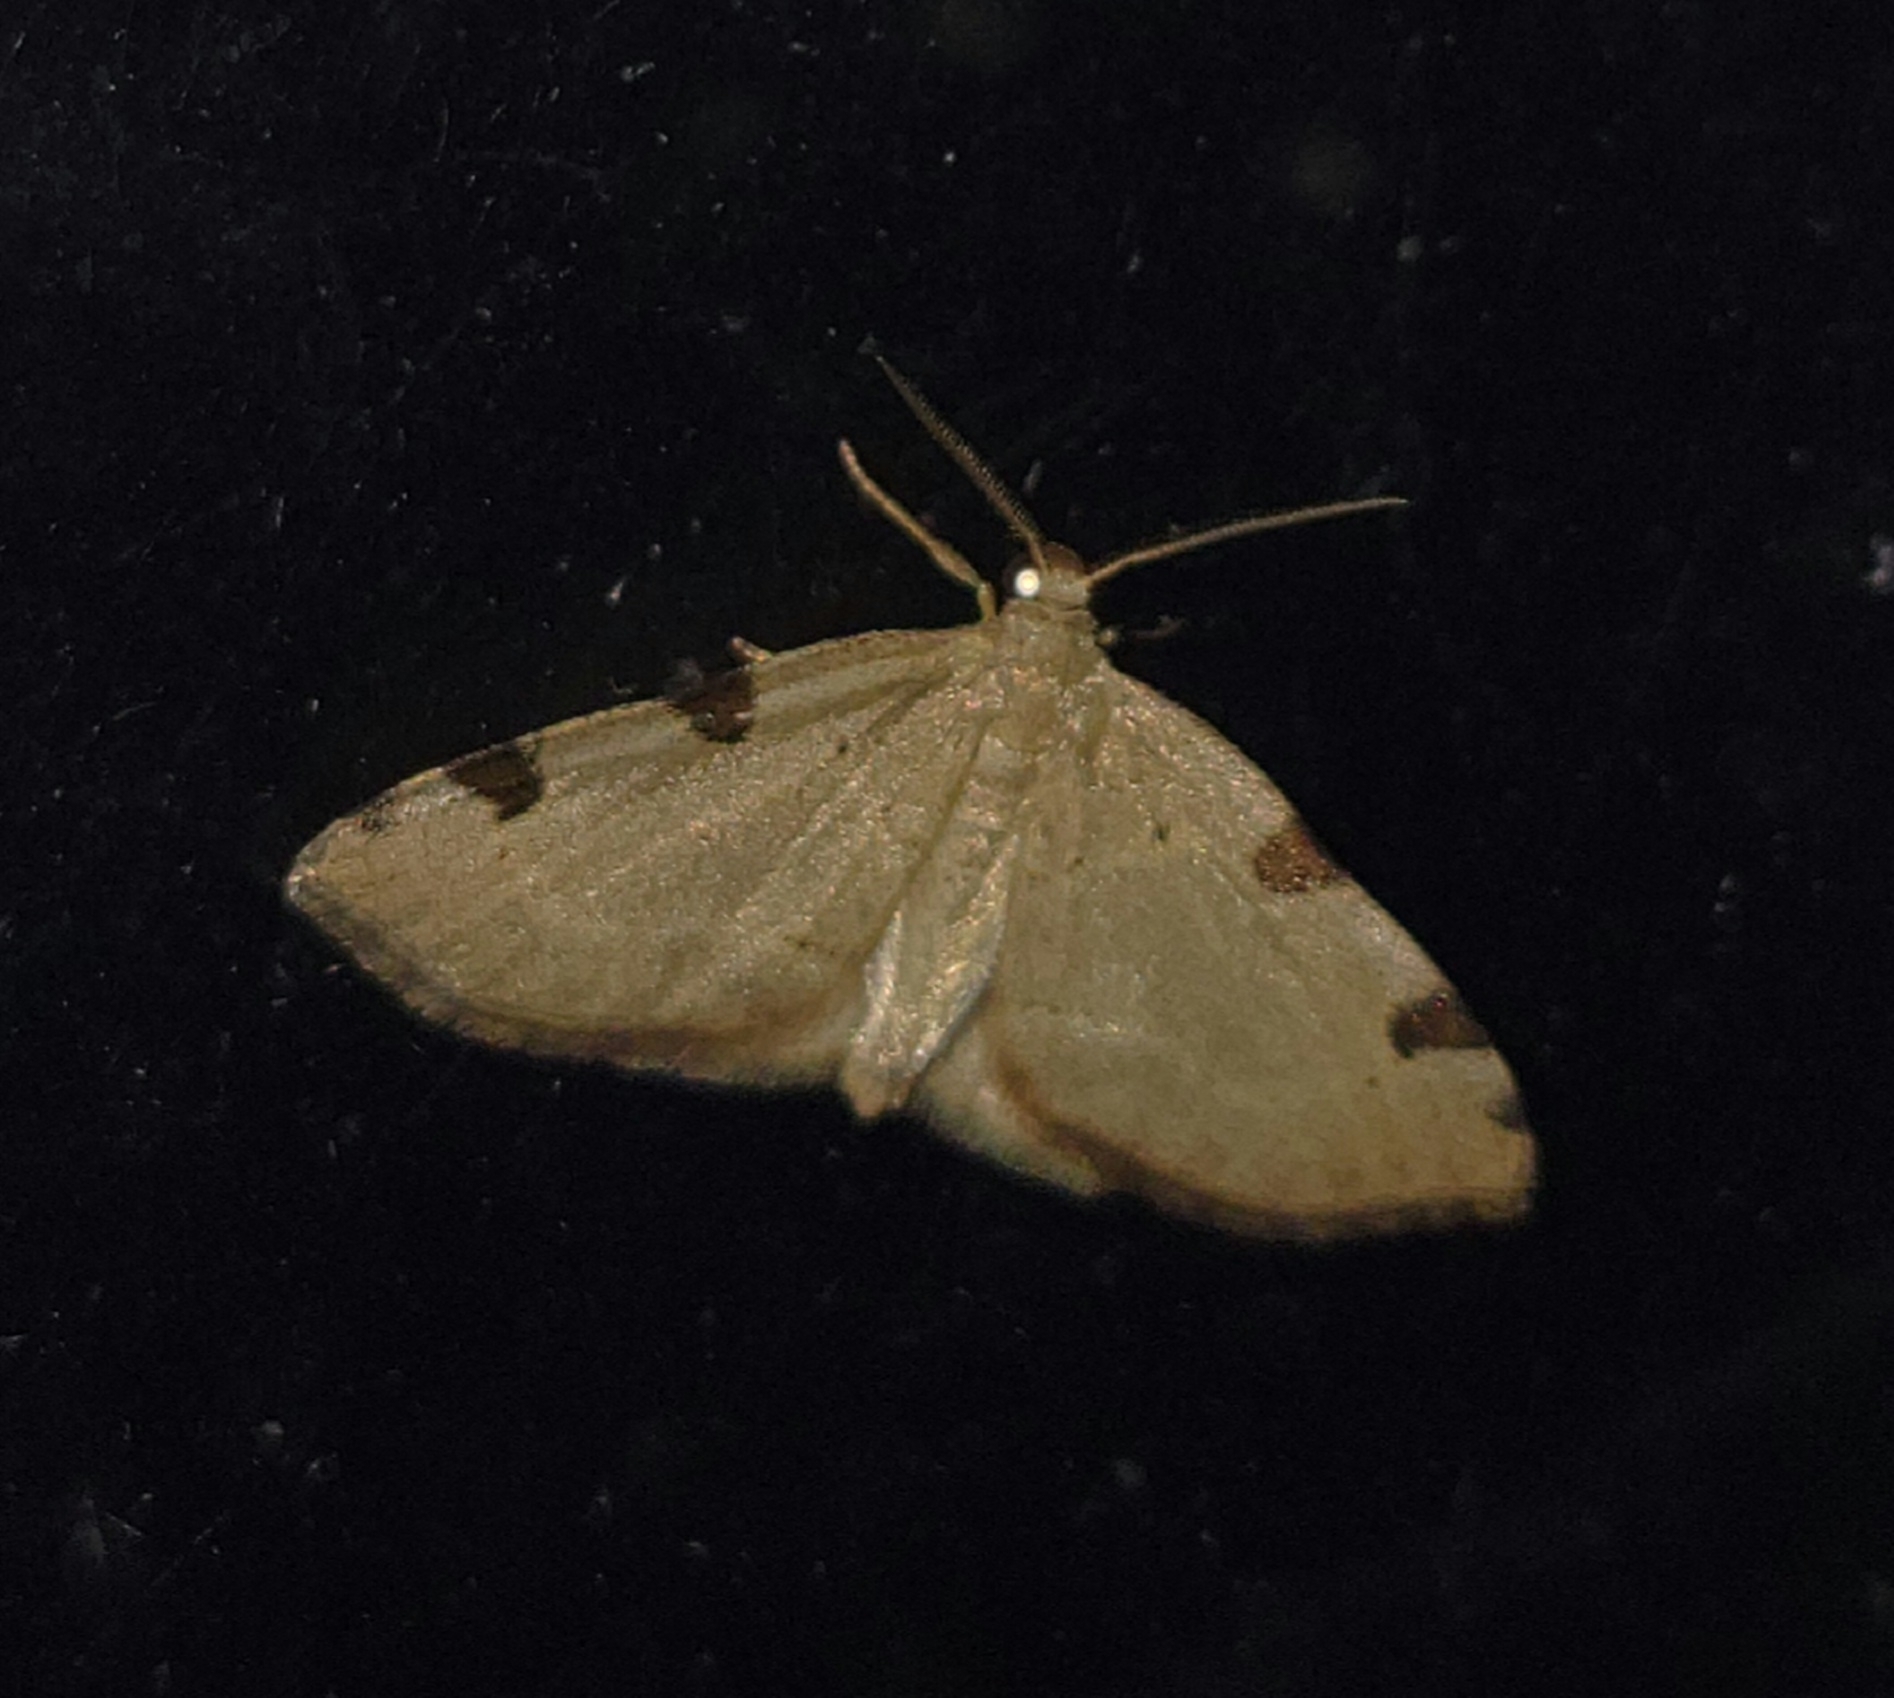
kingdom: Animalia
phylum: Arthropoda
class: Insecta
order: Lepidoptera
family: Geometridae
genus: Heterophleps
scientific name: Heterophleps triguttaria
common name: Three-spotted fillip
